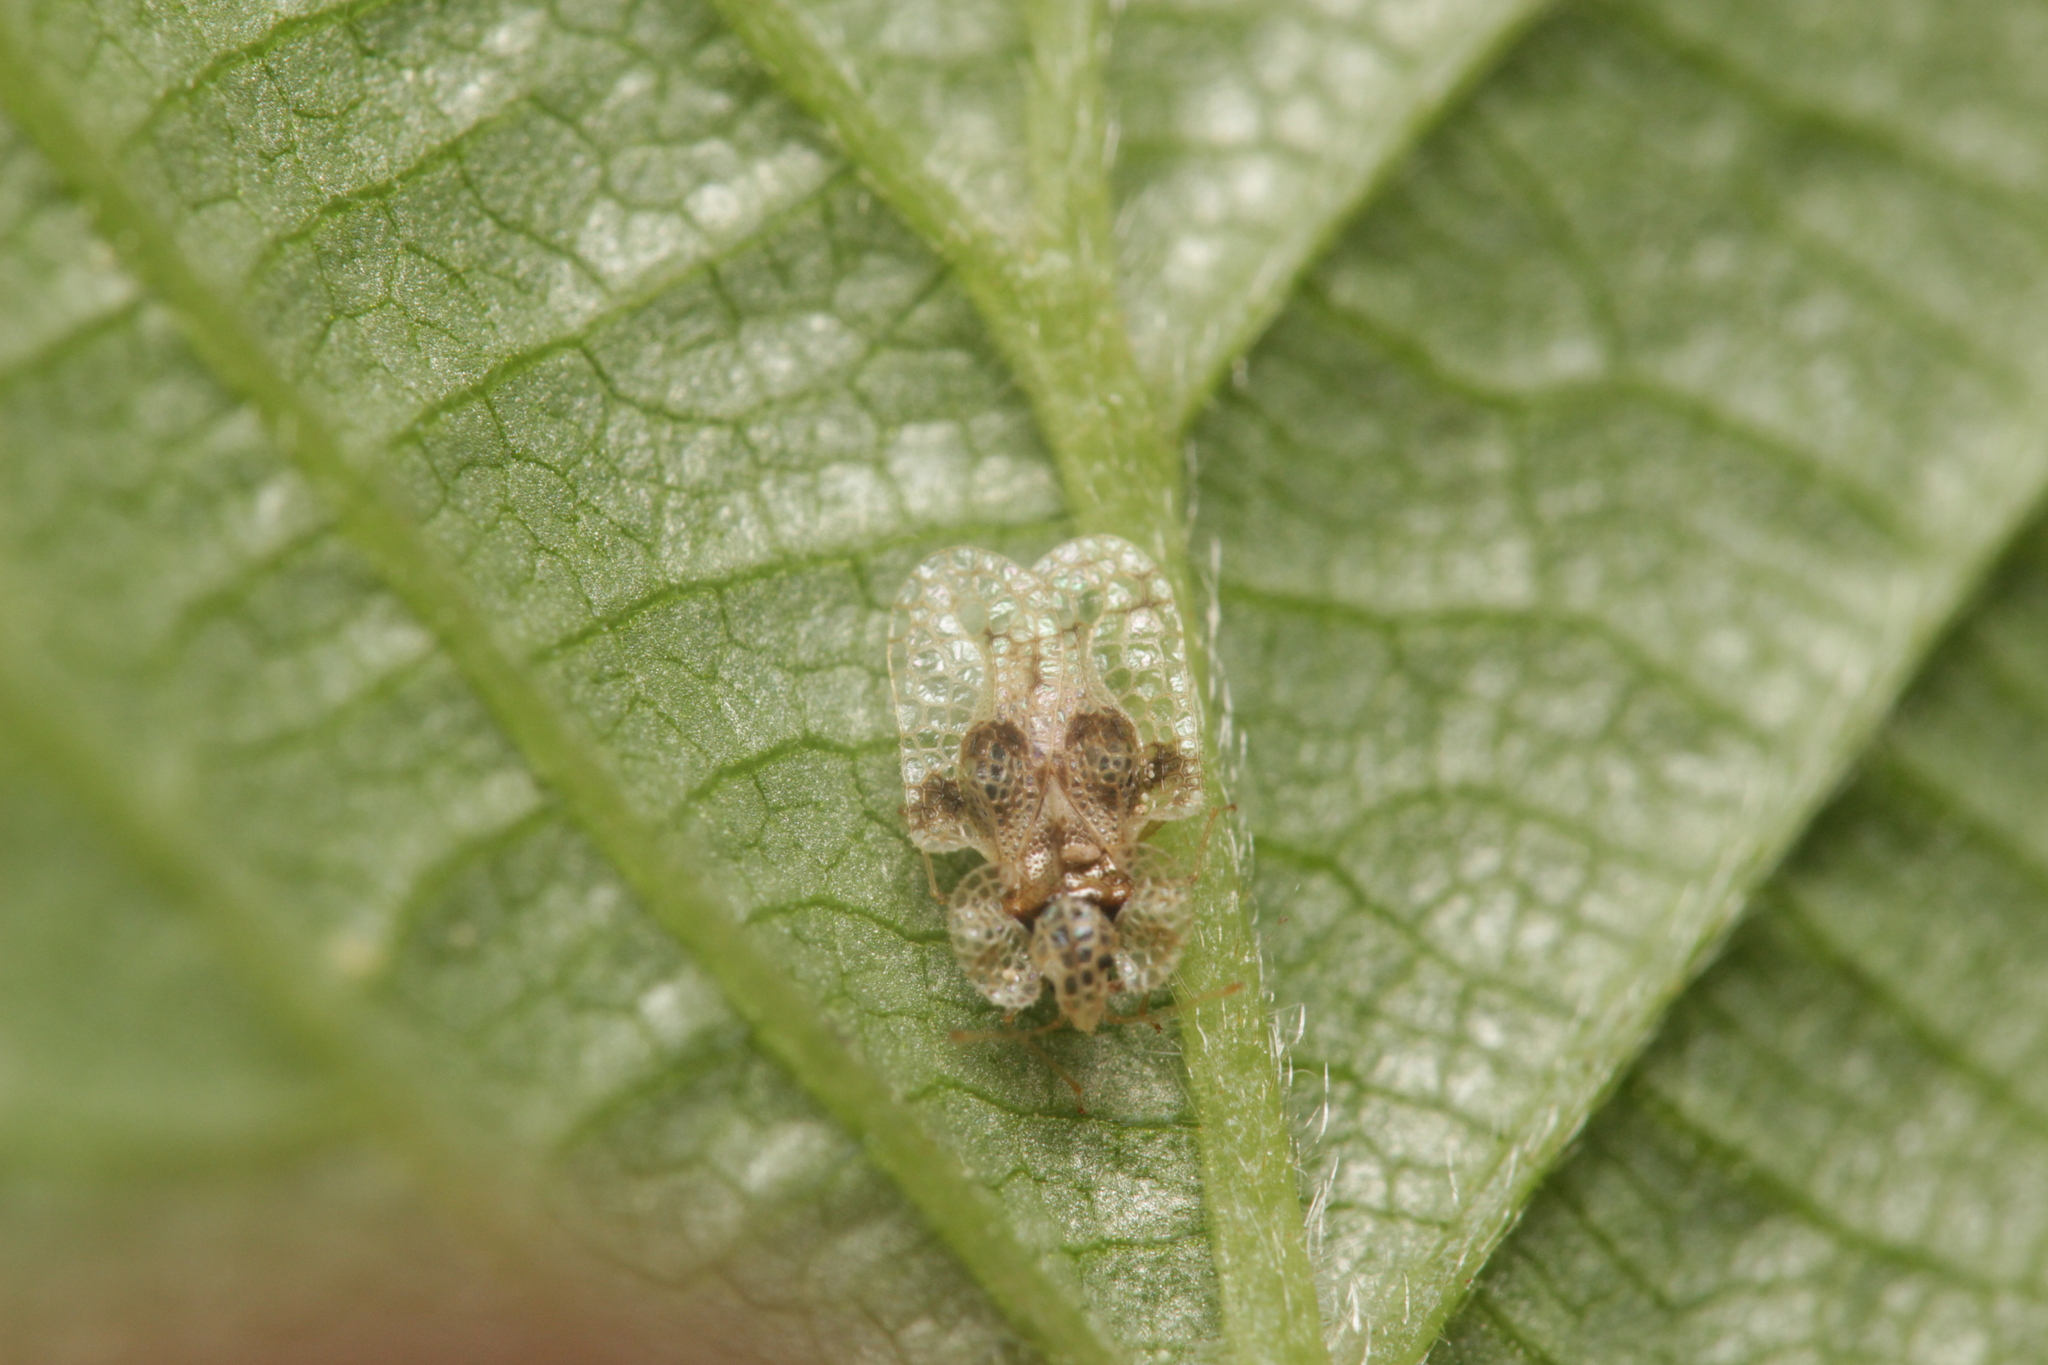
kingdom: Animalia
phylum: Arthropoda
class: Insecta
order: Hemiptera
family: Tingidae
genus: Corythucha
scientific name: Corythucha arcuata
